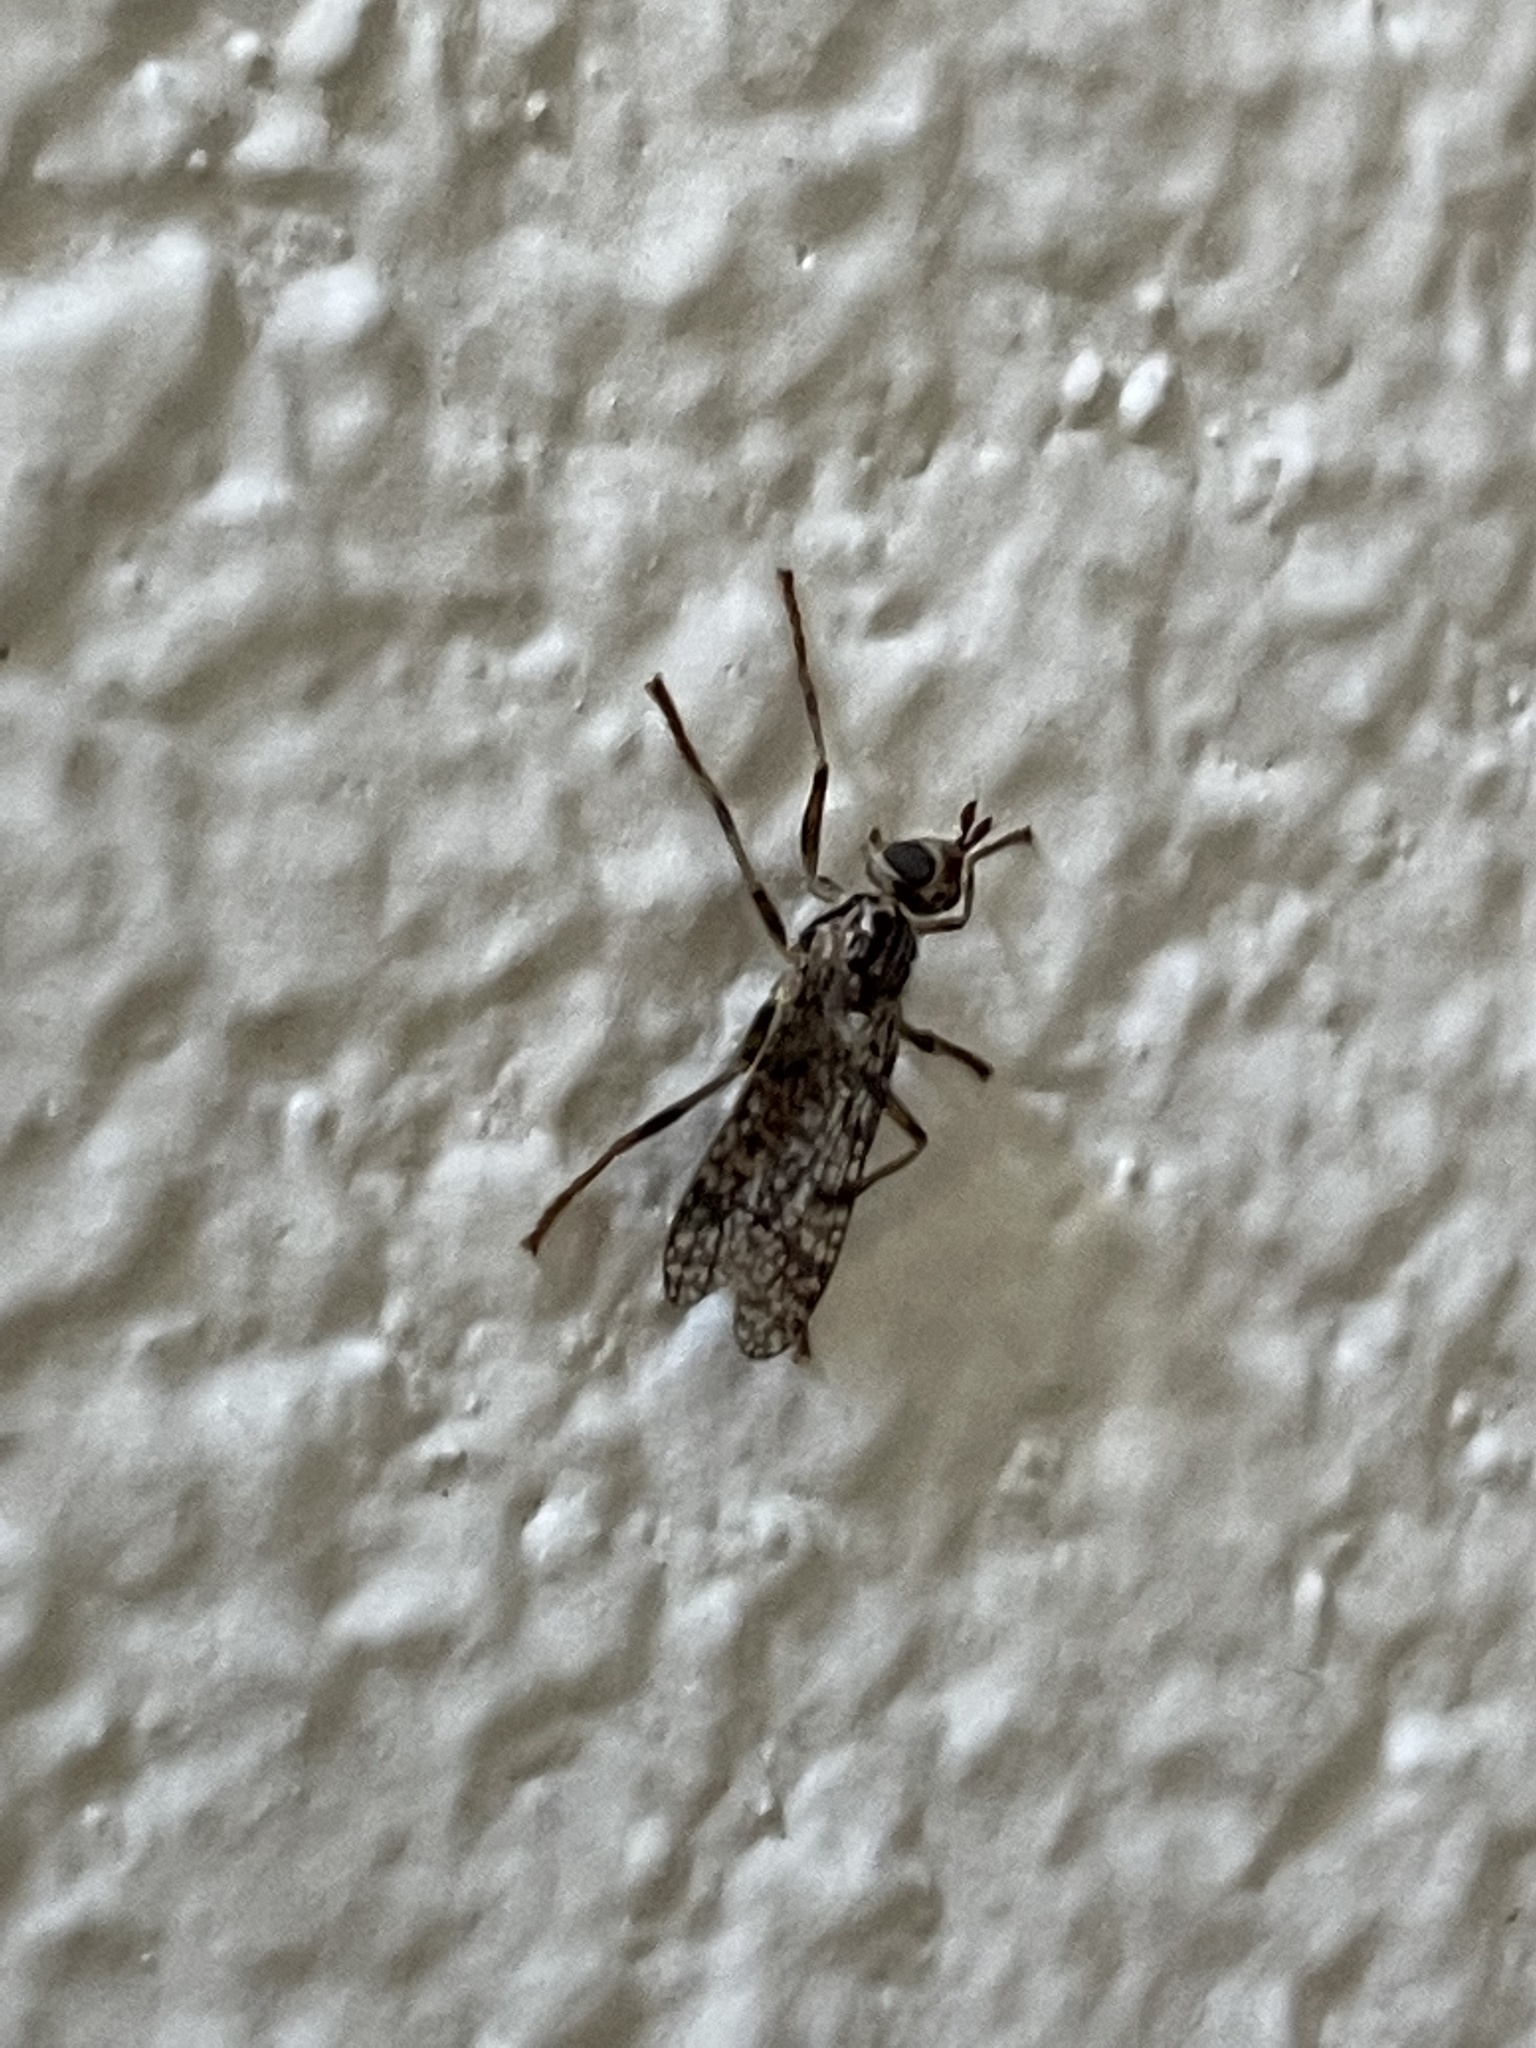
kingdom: Animalia
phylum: Arthropoda
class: Insecta
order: Diptera
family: Pyrgotidae
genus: Boreothrinax
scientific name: Boreothrinax
